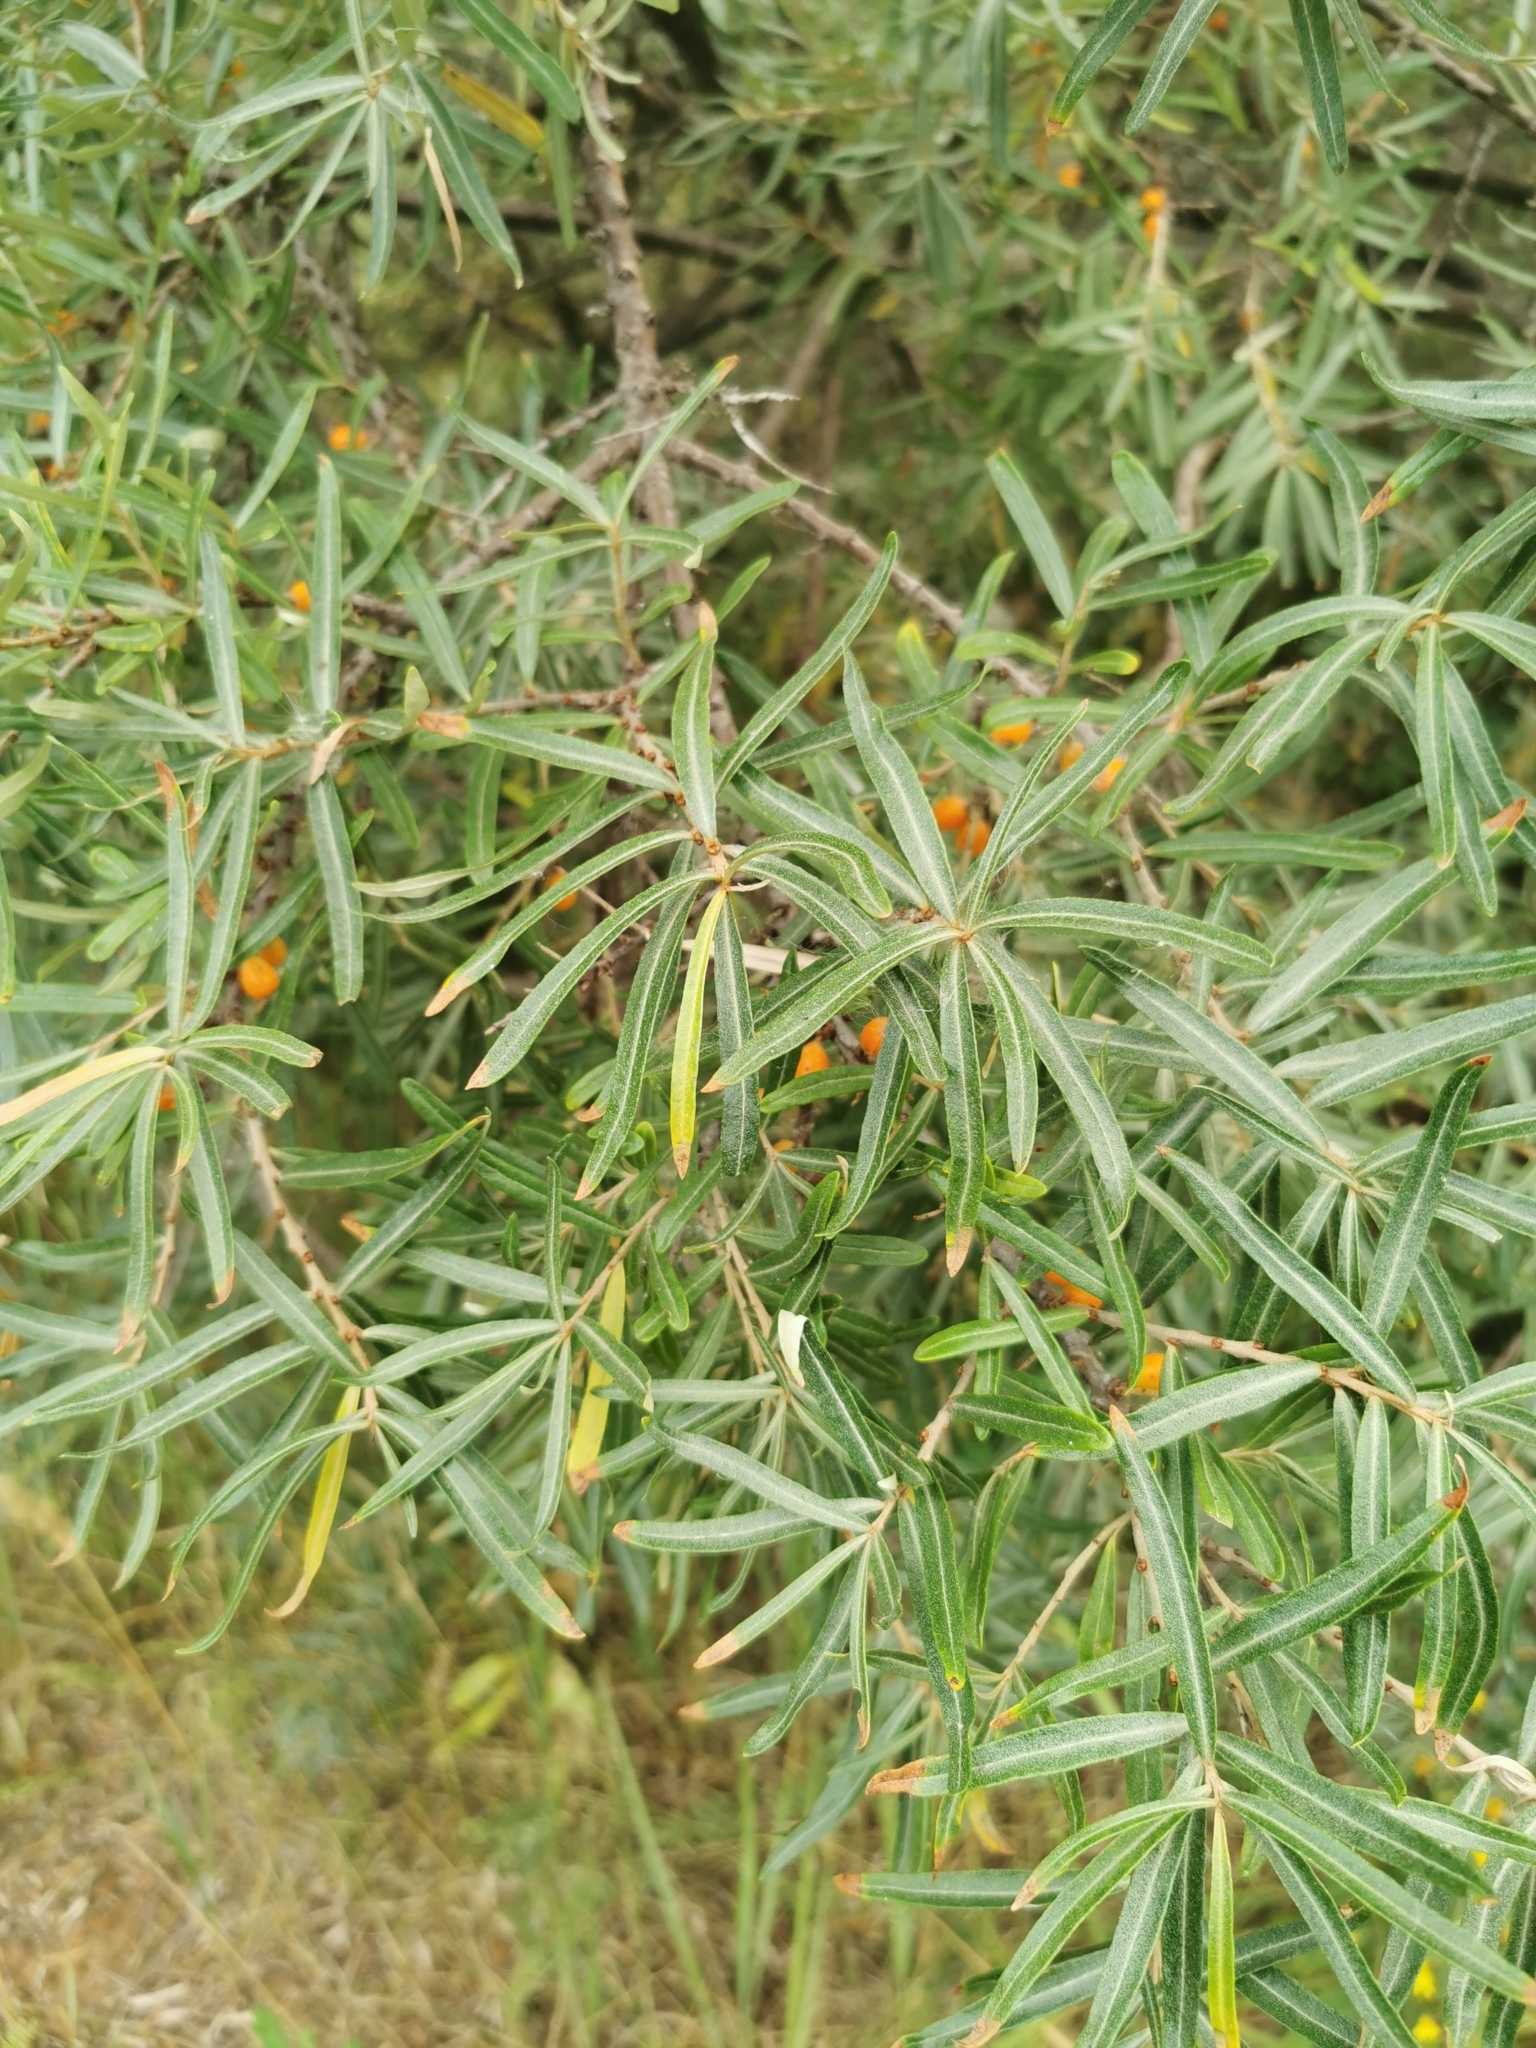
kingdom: Plantae
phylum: Tracheophyta
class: Magnoliopsida
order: Rosales
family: Elaeagnaceae
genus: Hippophae
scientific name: Hippophae rhamnoides
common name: Sea-buckthorn
